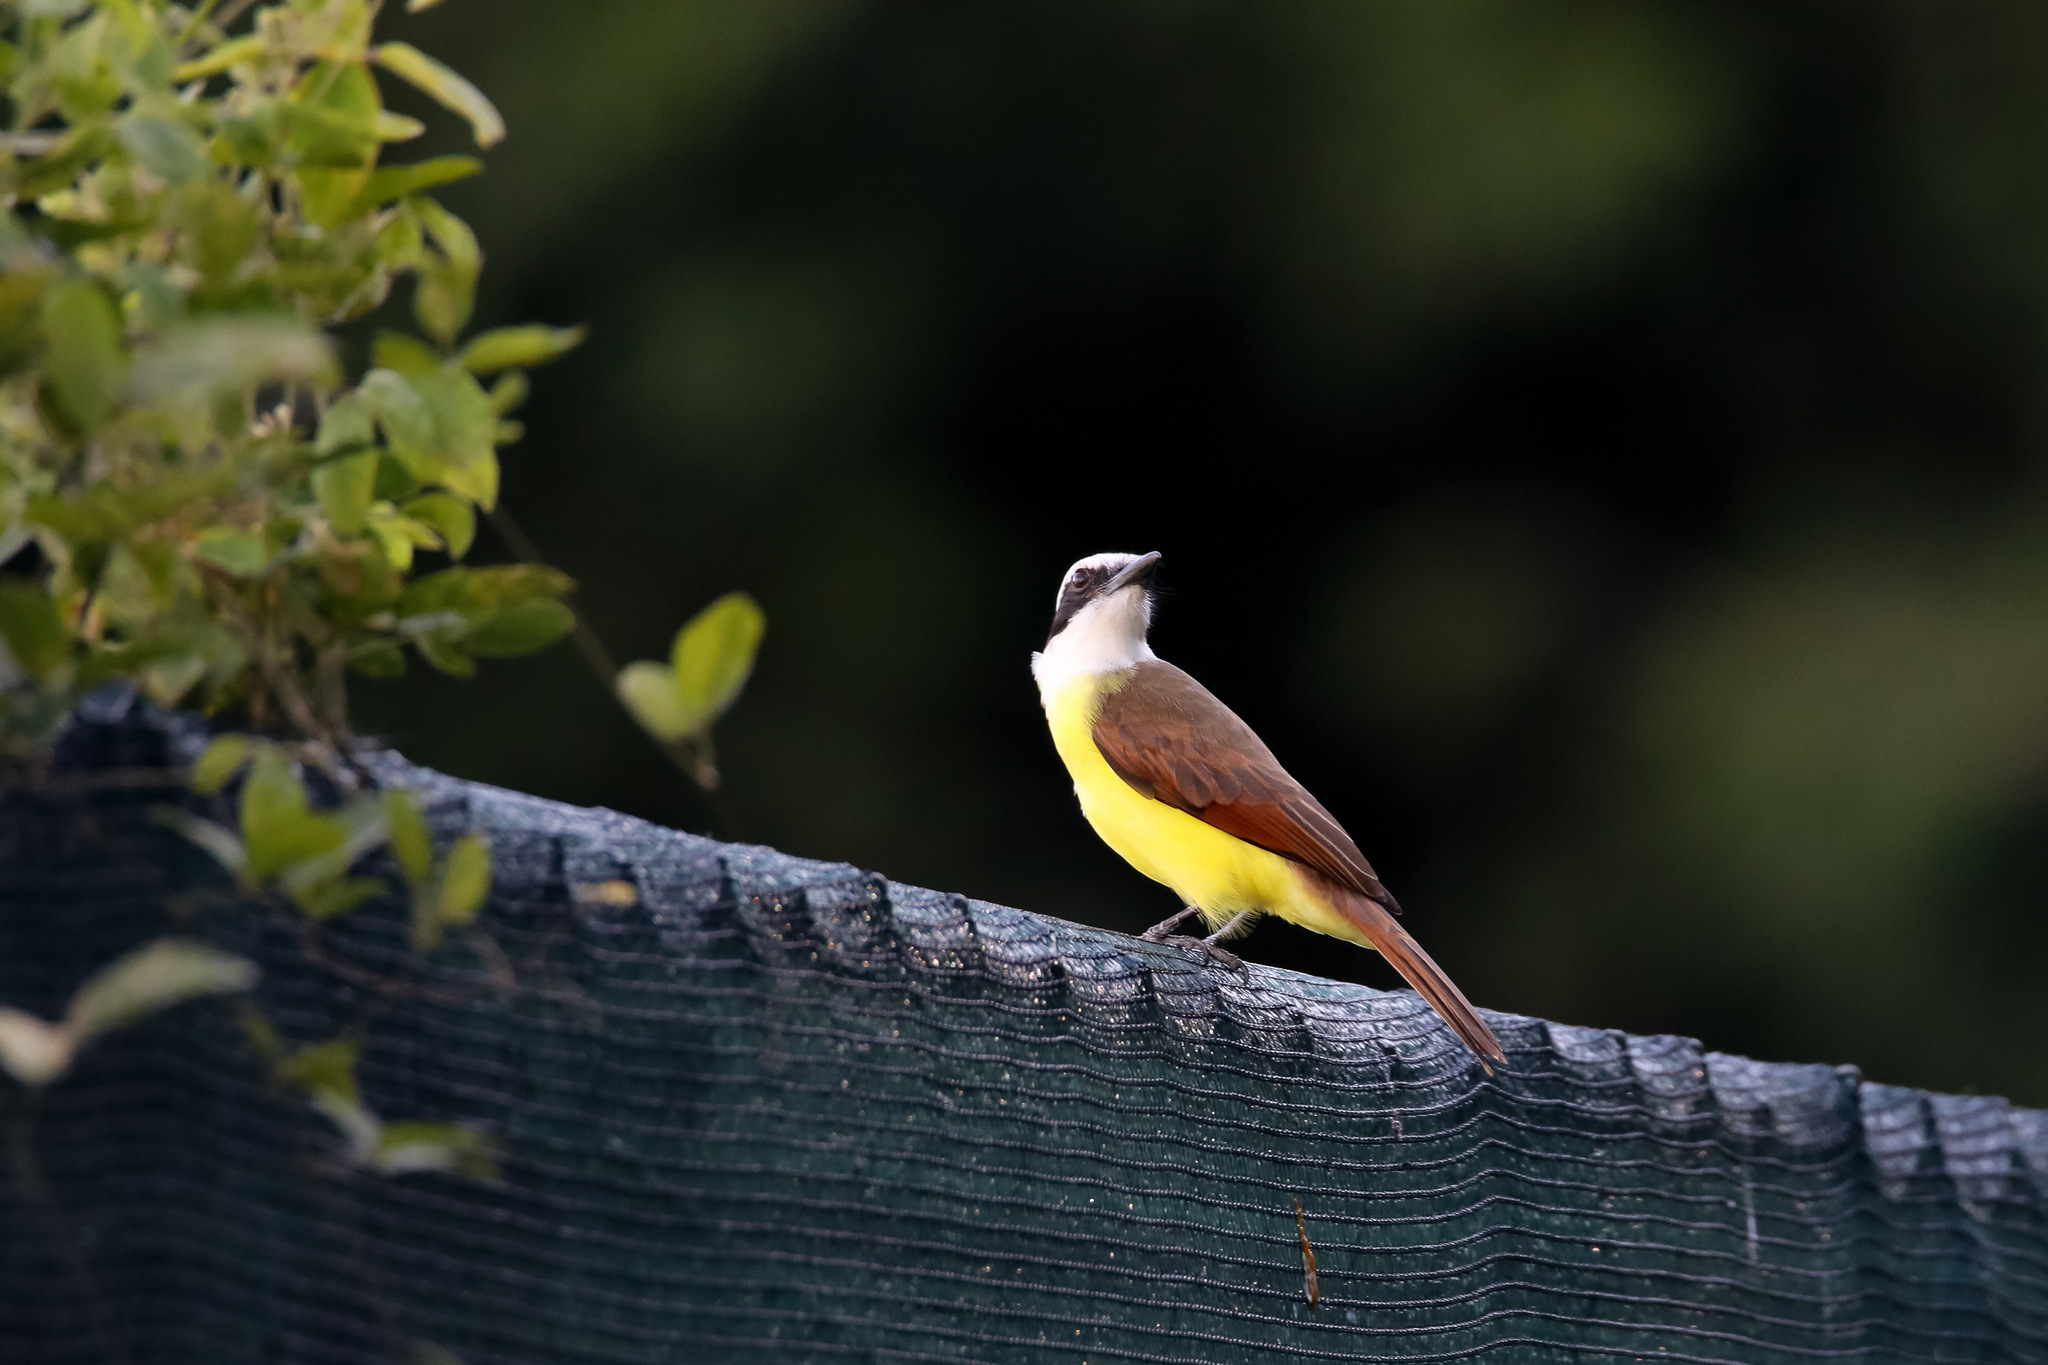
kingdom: Animalia
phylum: Chordata
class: Aves
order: Passeriformes
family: Tyrannidae
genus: Pitangus
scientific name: Pitangus sulphuratus
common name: Great kiskadee
